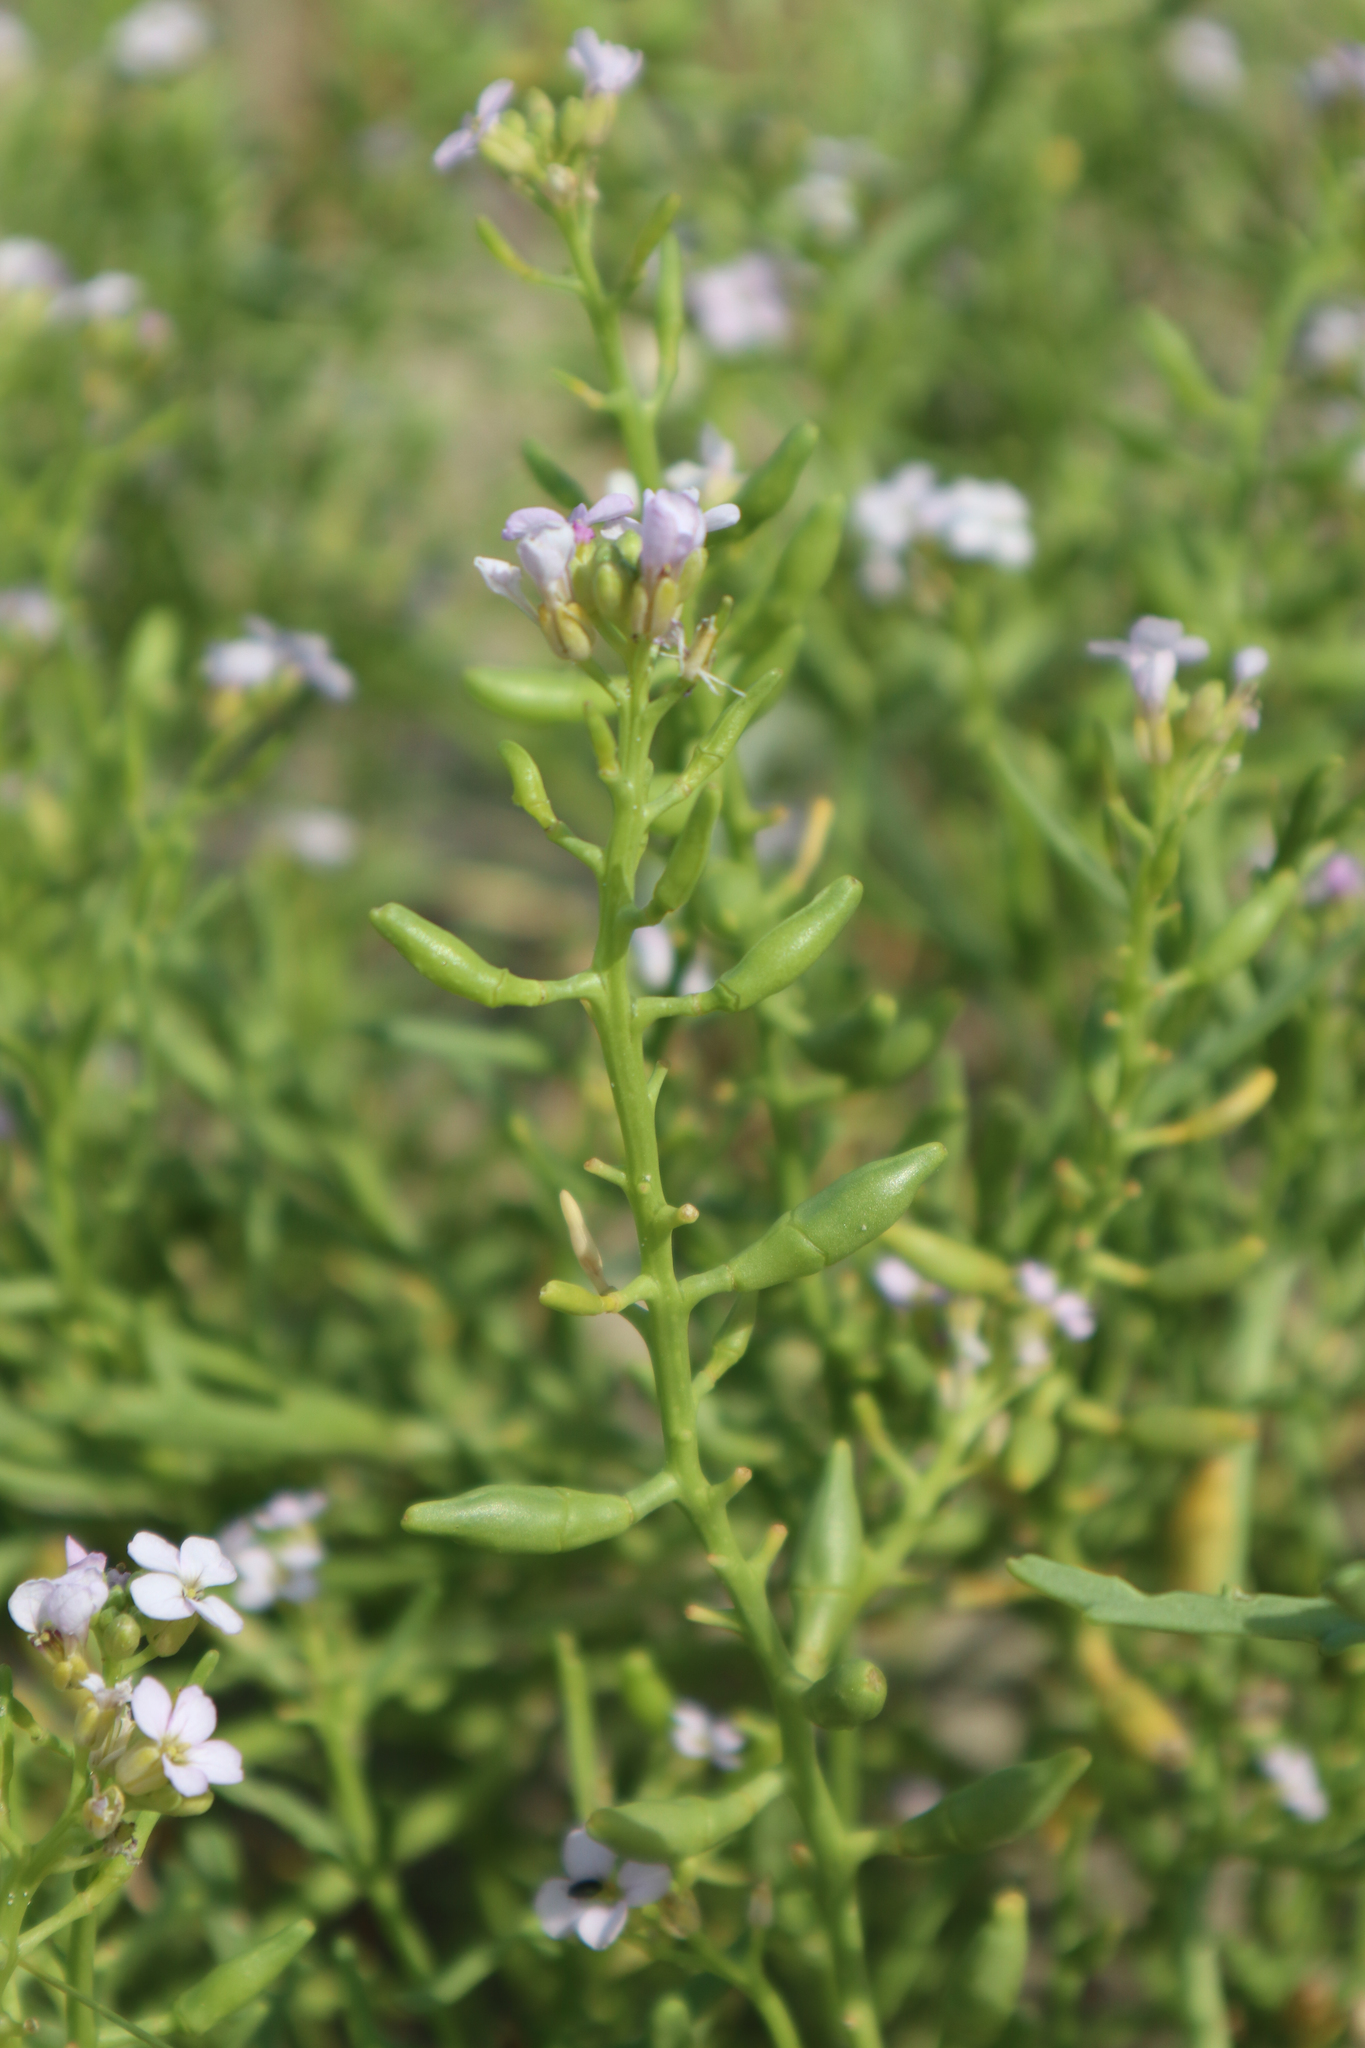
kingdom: Plantae
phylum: Tracheophyta
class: Magnoliopsida
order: Brassicales
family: Brassicaceae
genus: Cakile
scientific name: Cakile maritima
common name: Sea rocket
